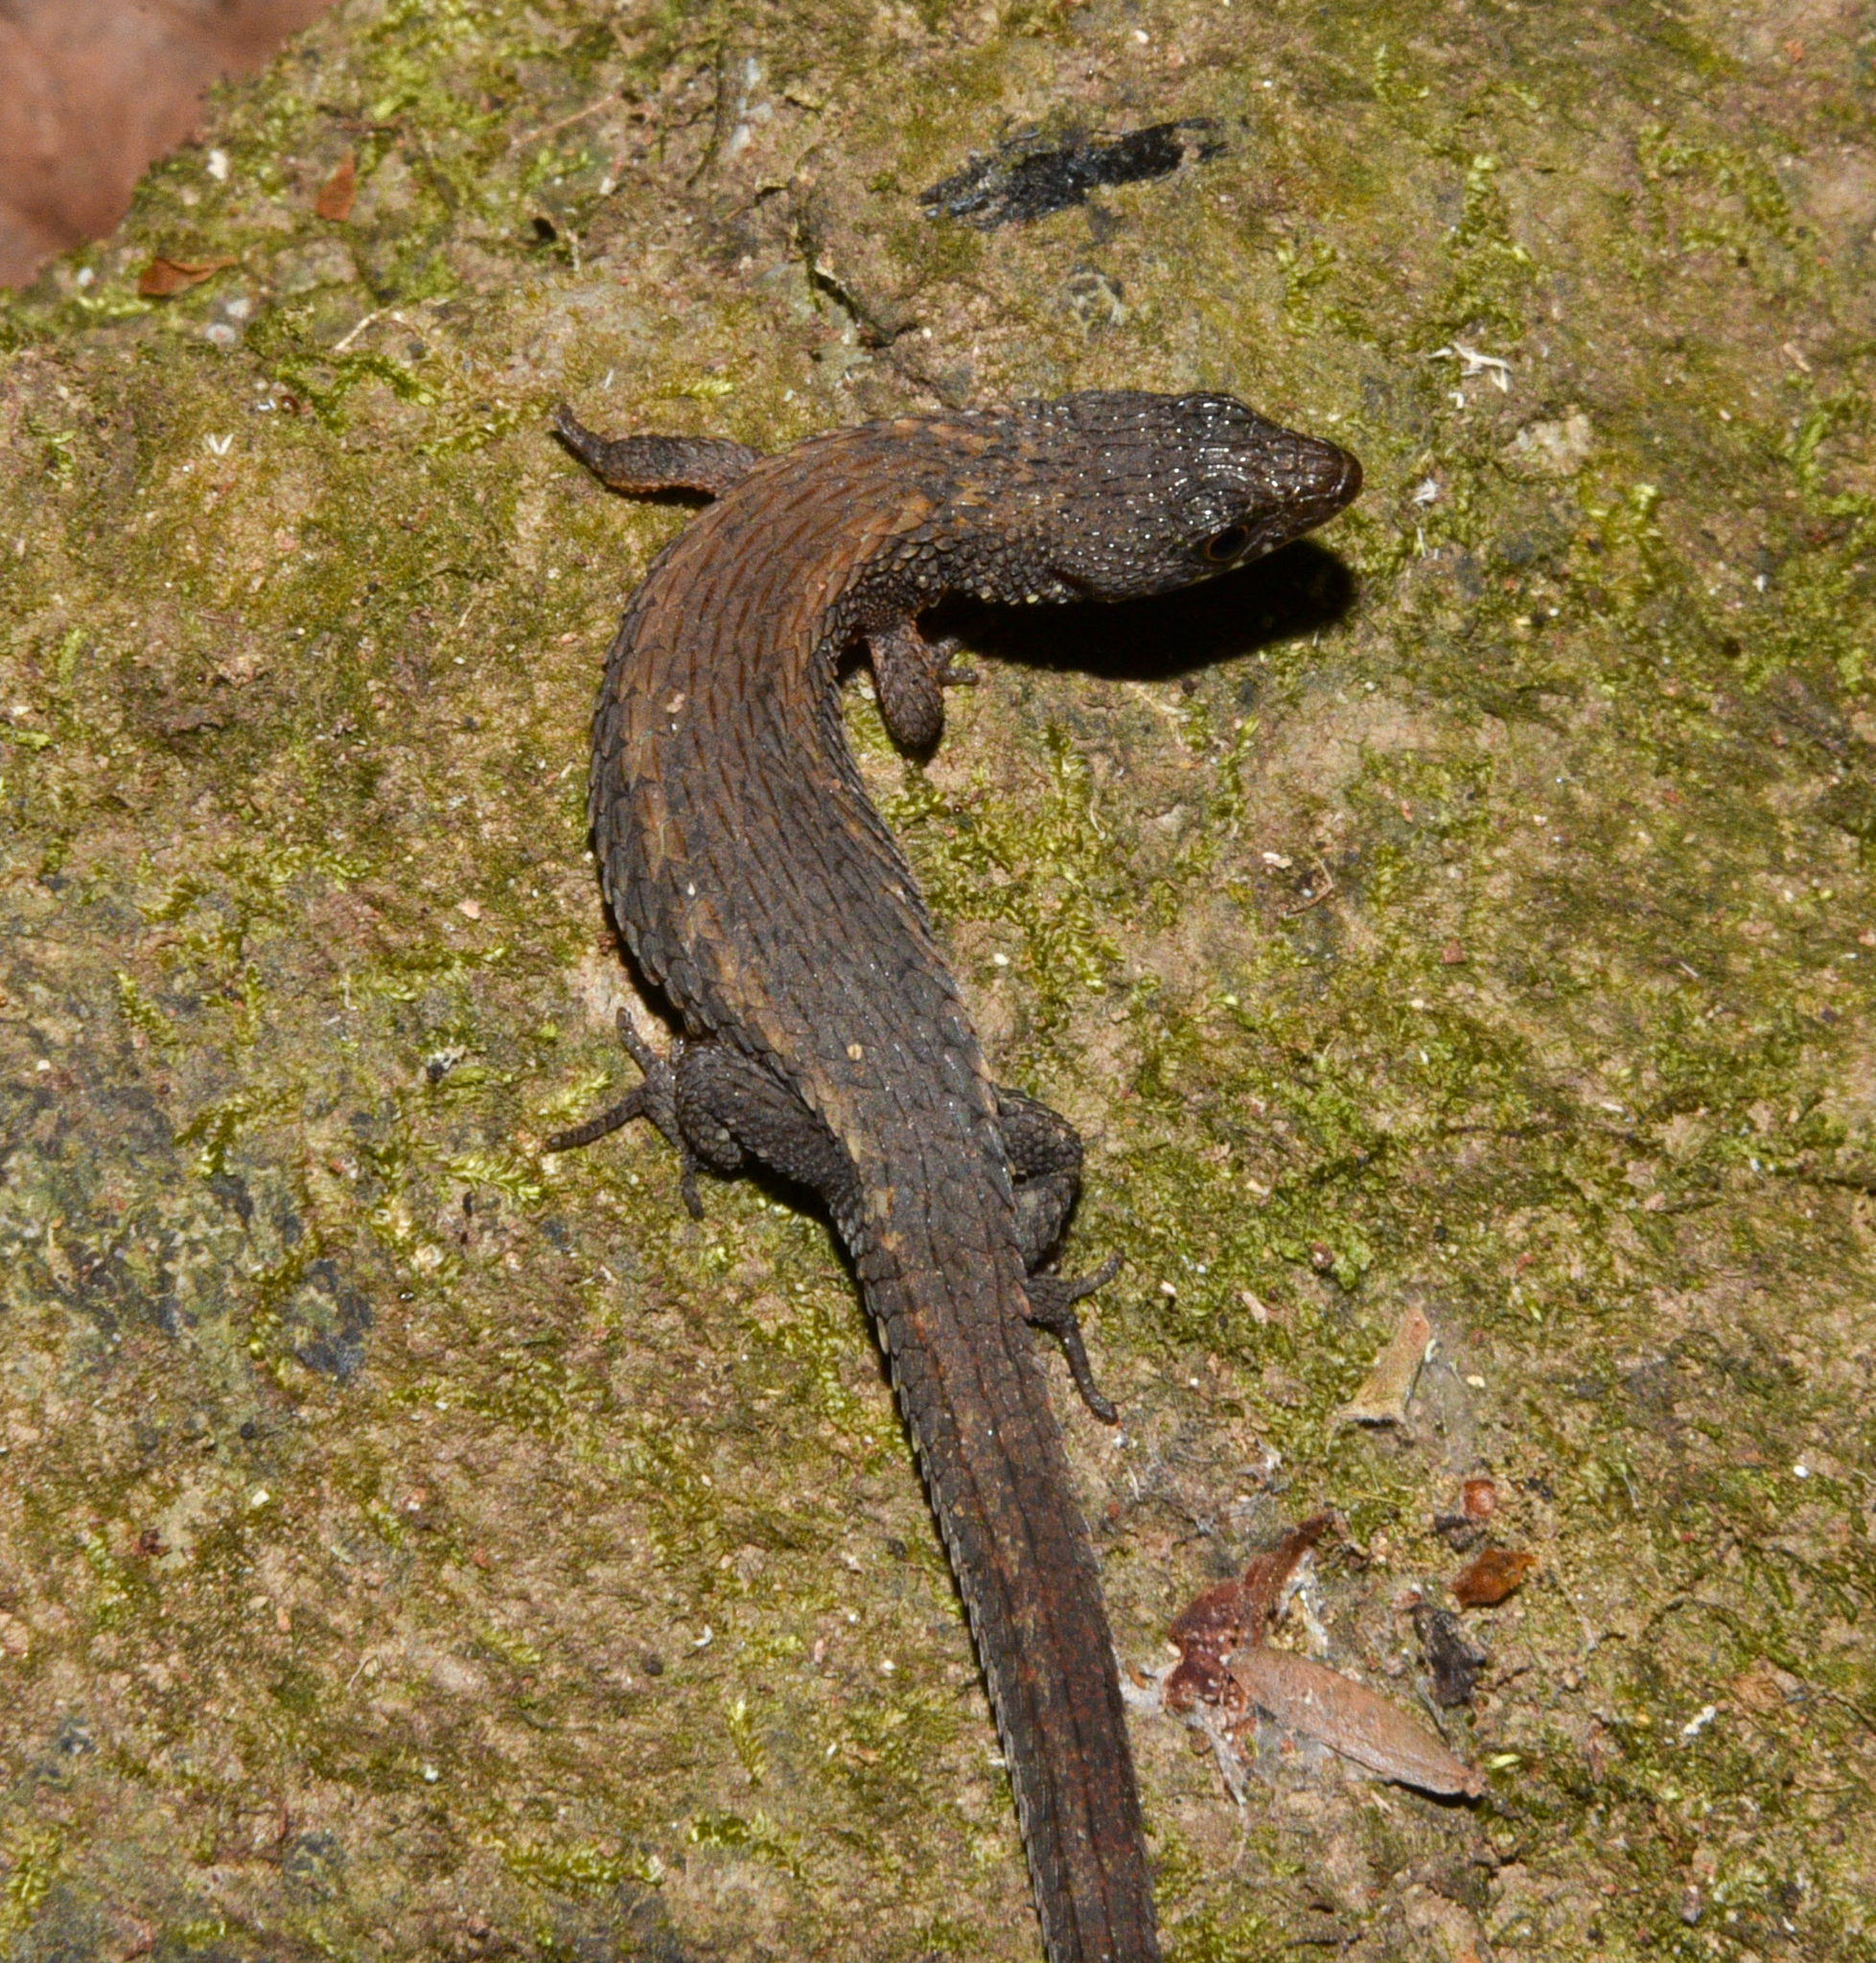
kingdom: Animalia
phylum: Chordata
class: Squamata
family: Gymnophthalmidae
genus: Loxopholis
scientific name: Loxopholis southi
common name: Northern spectacled lizard
